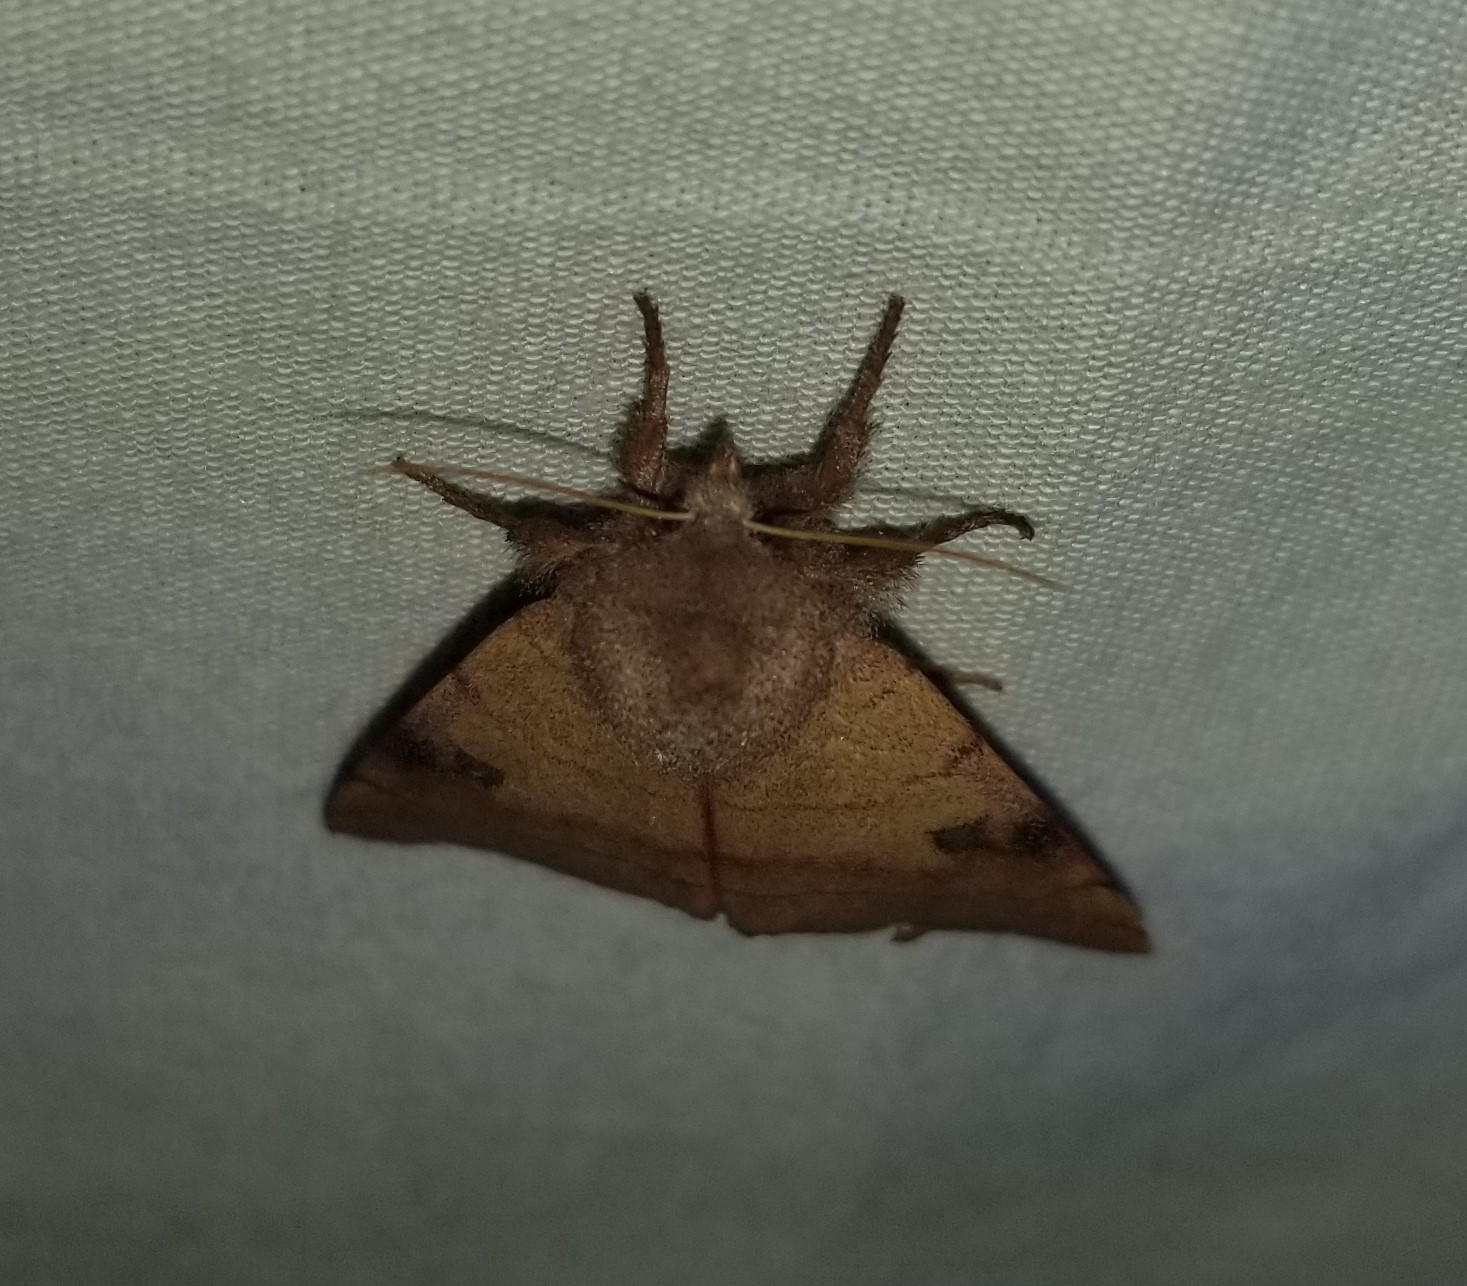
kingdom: Animalia
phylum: Arthropoda
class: Insecta
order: Lepidoptera
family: Noctuidae
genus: Choephora
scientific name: Choephora fungorum
